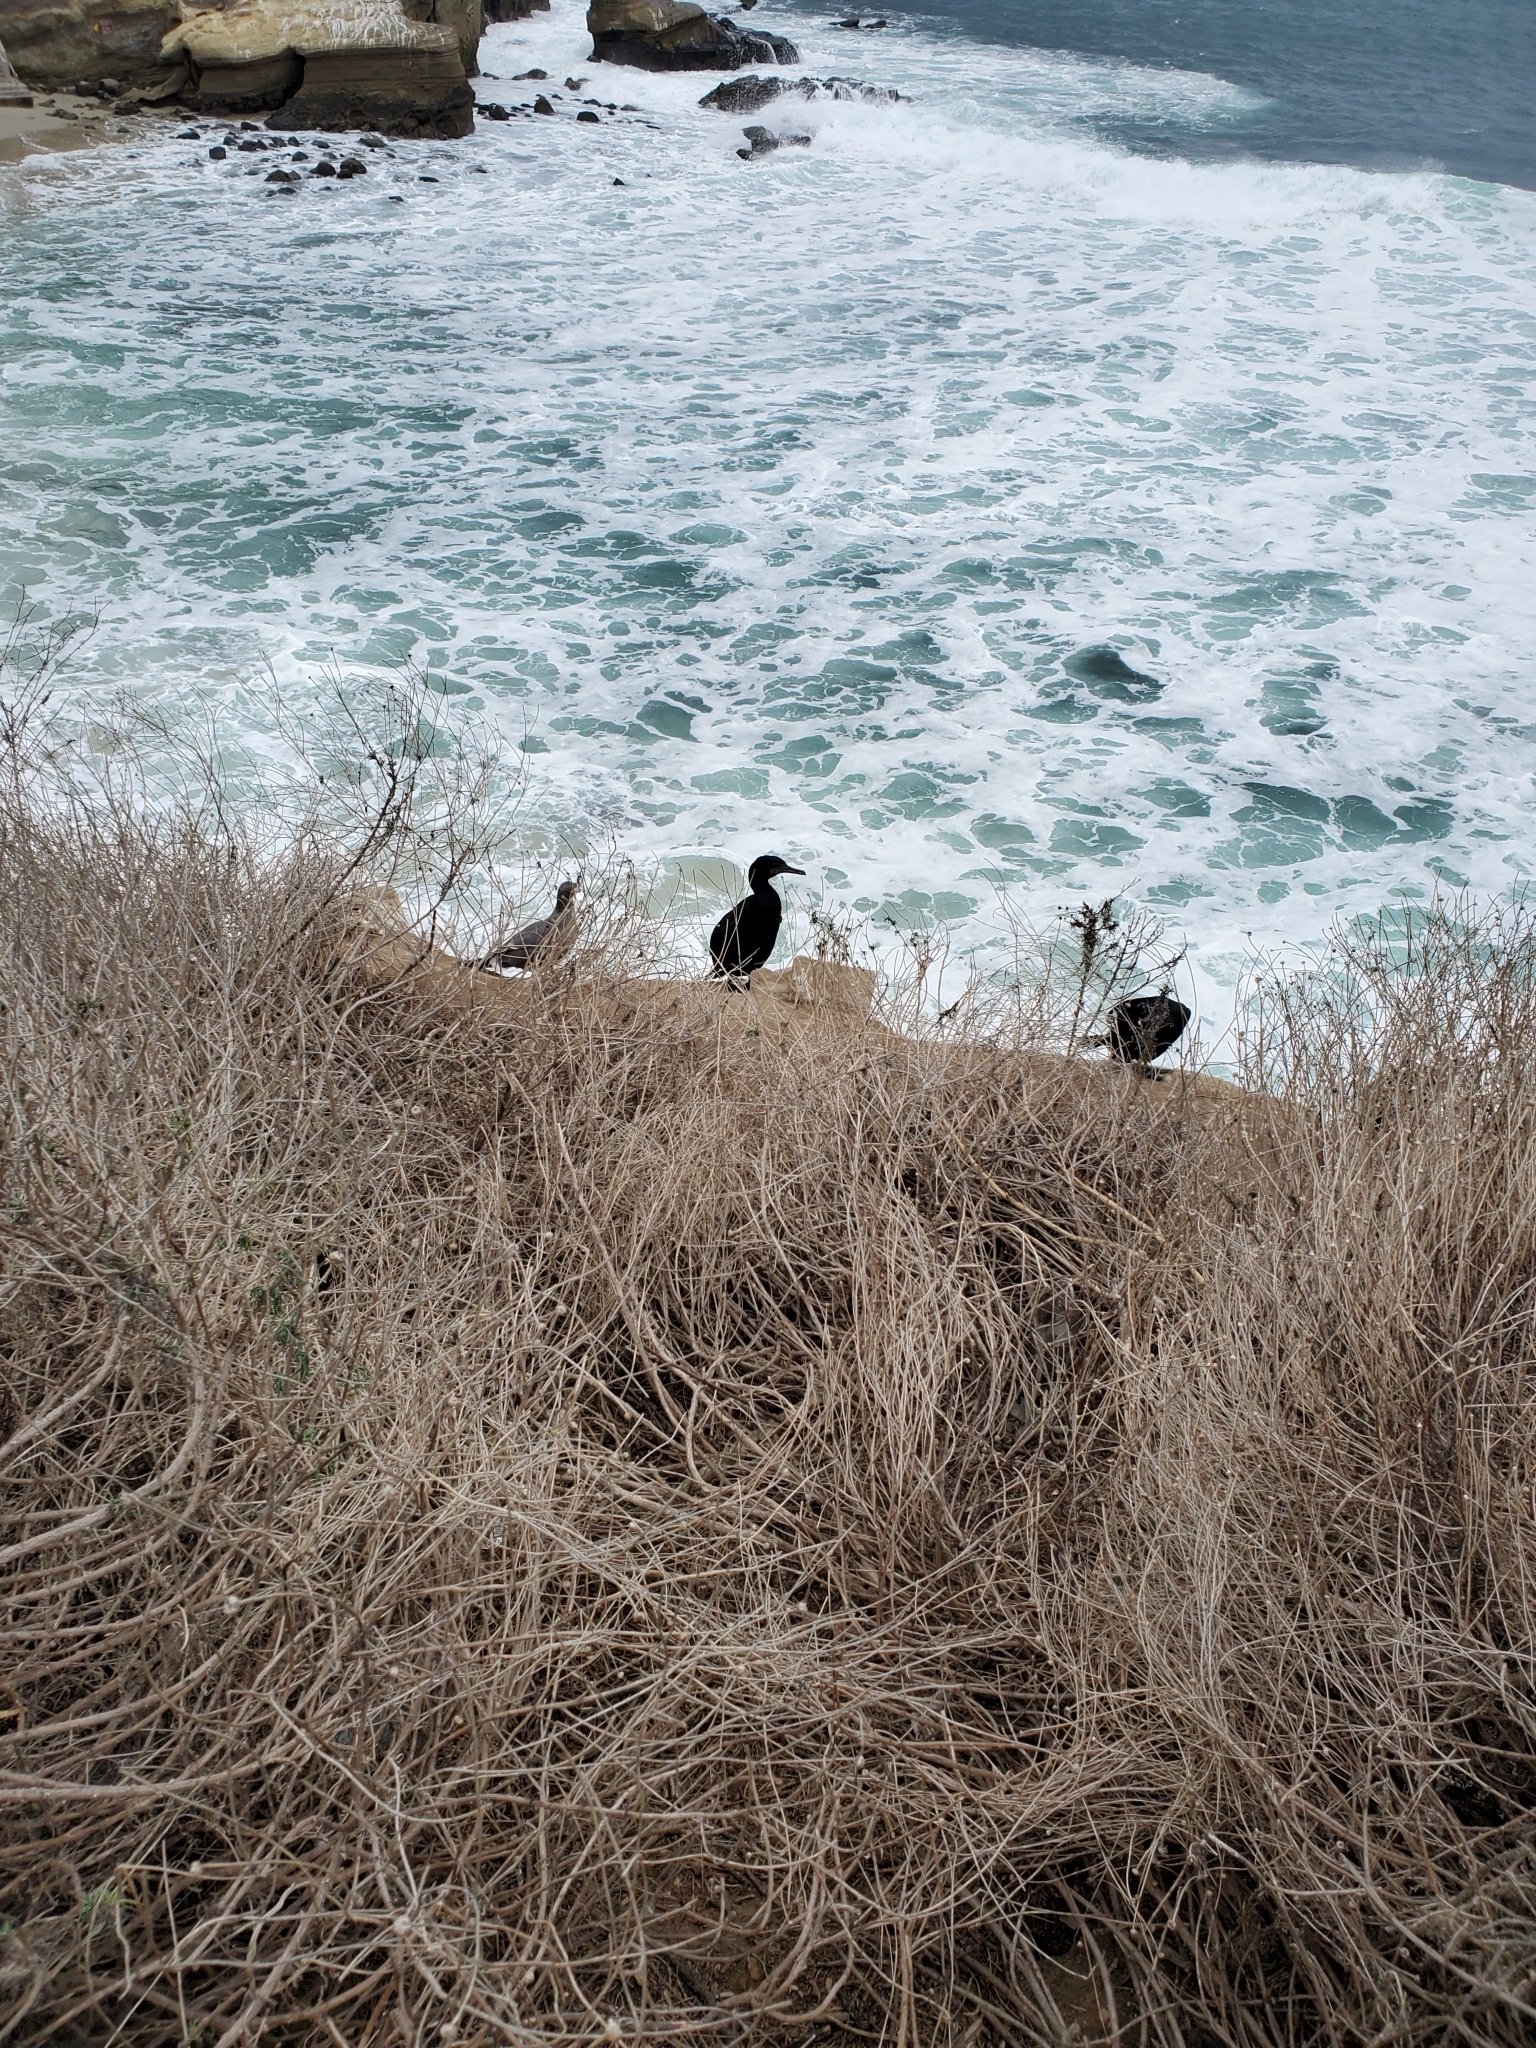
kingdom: Animalia
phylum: Chordata
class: Aves
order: Suliformes
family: Phalacrocoracidae
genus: Urile
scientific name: Urile penicillatus
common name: Brandt's cormorant
